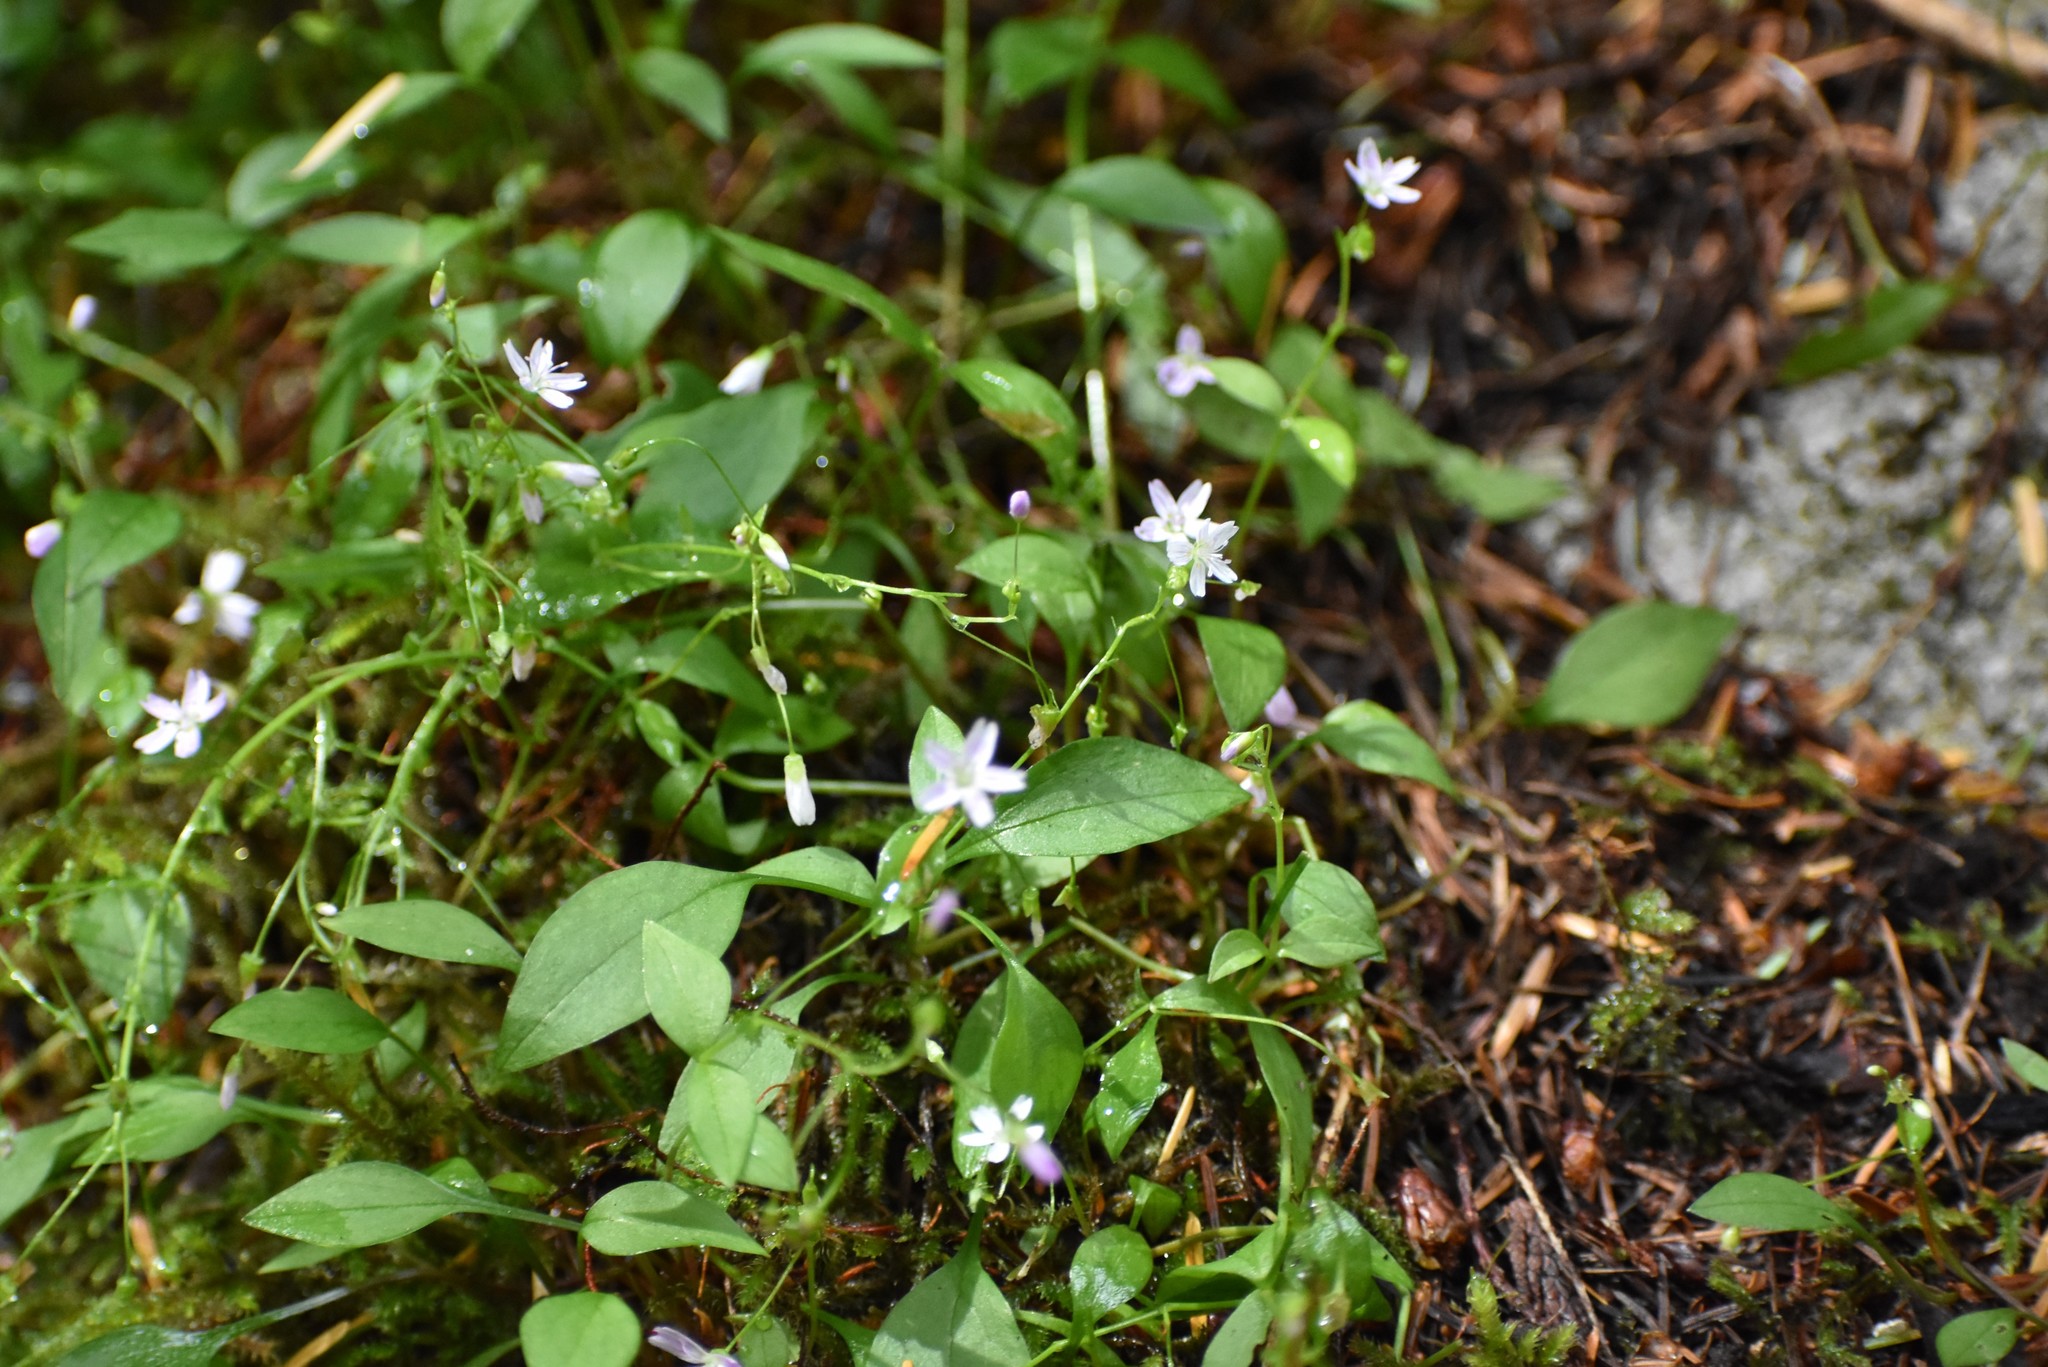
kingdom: Plantae
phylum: Tracheophyta
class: Magnoliopsida
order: Caryophyllales
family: Montiaceae
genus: Claytonia
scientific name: Claytonia sibirica
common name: Pink purslane
